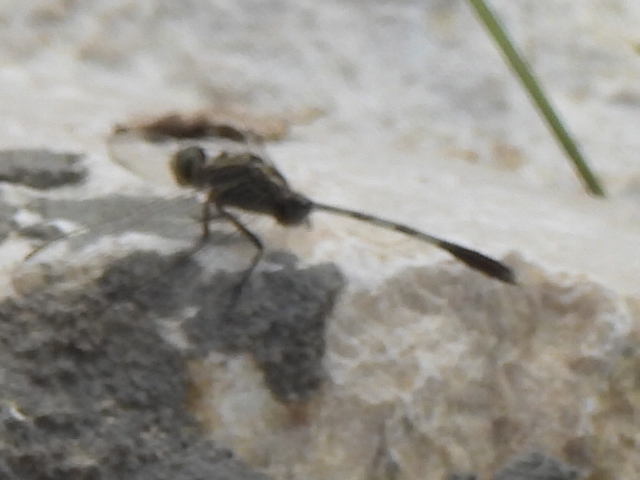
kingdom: Animalia
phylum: Arthropoda
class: Insecta
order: Odonata
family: Libellulidae
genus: Orthetrum
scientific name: Orthetrum sabina
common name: Slender skimmer
